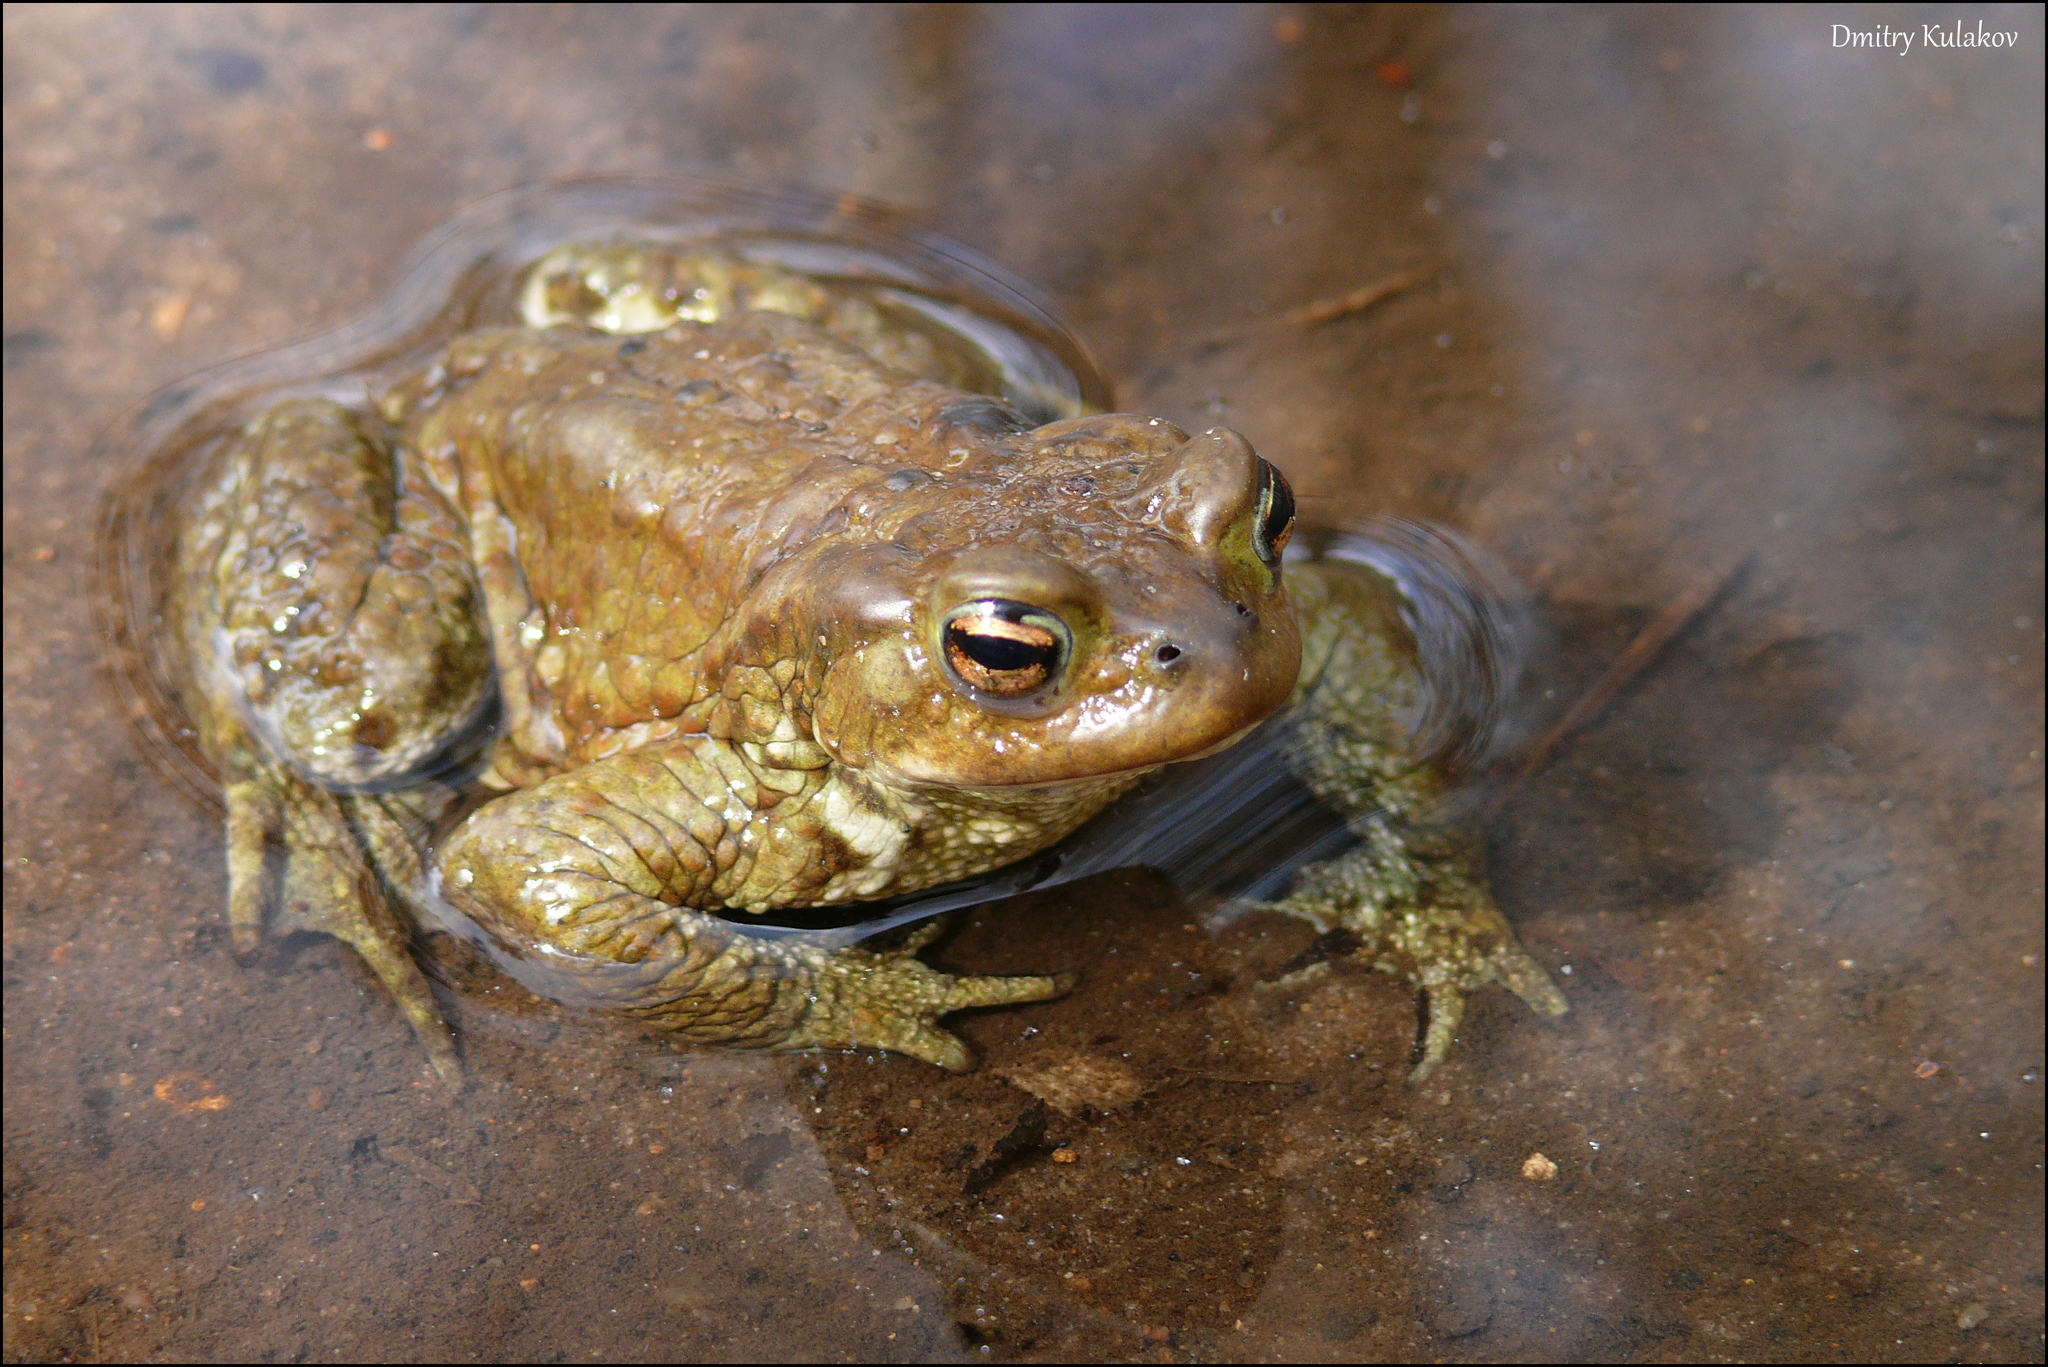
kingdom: Animalia
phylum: Chordata
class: Amphibia
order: Anura
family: Bufonidae
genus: Bufo
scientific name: Bufo bufo
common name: Common toad
